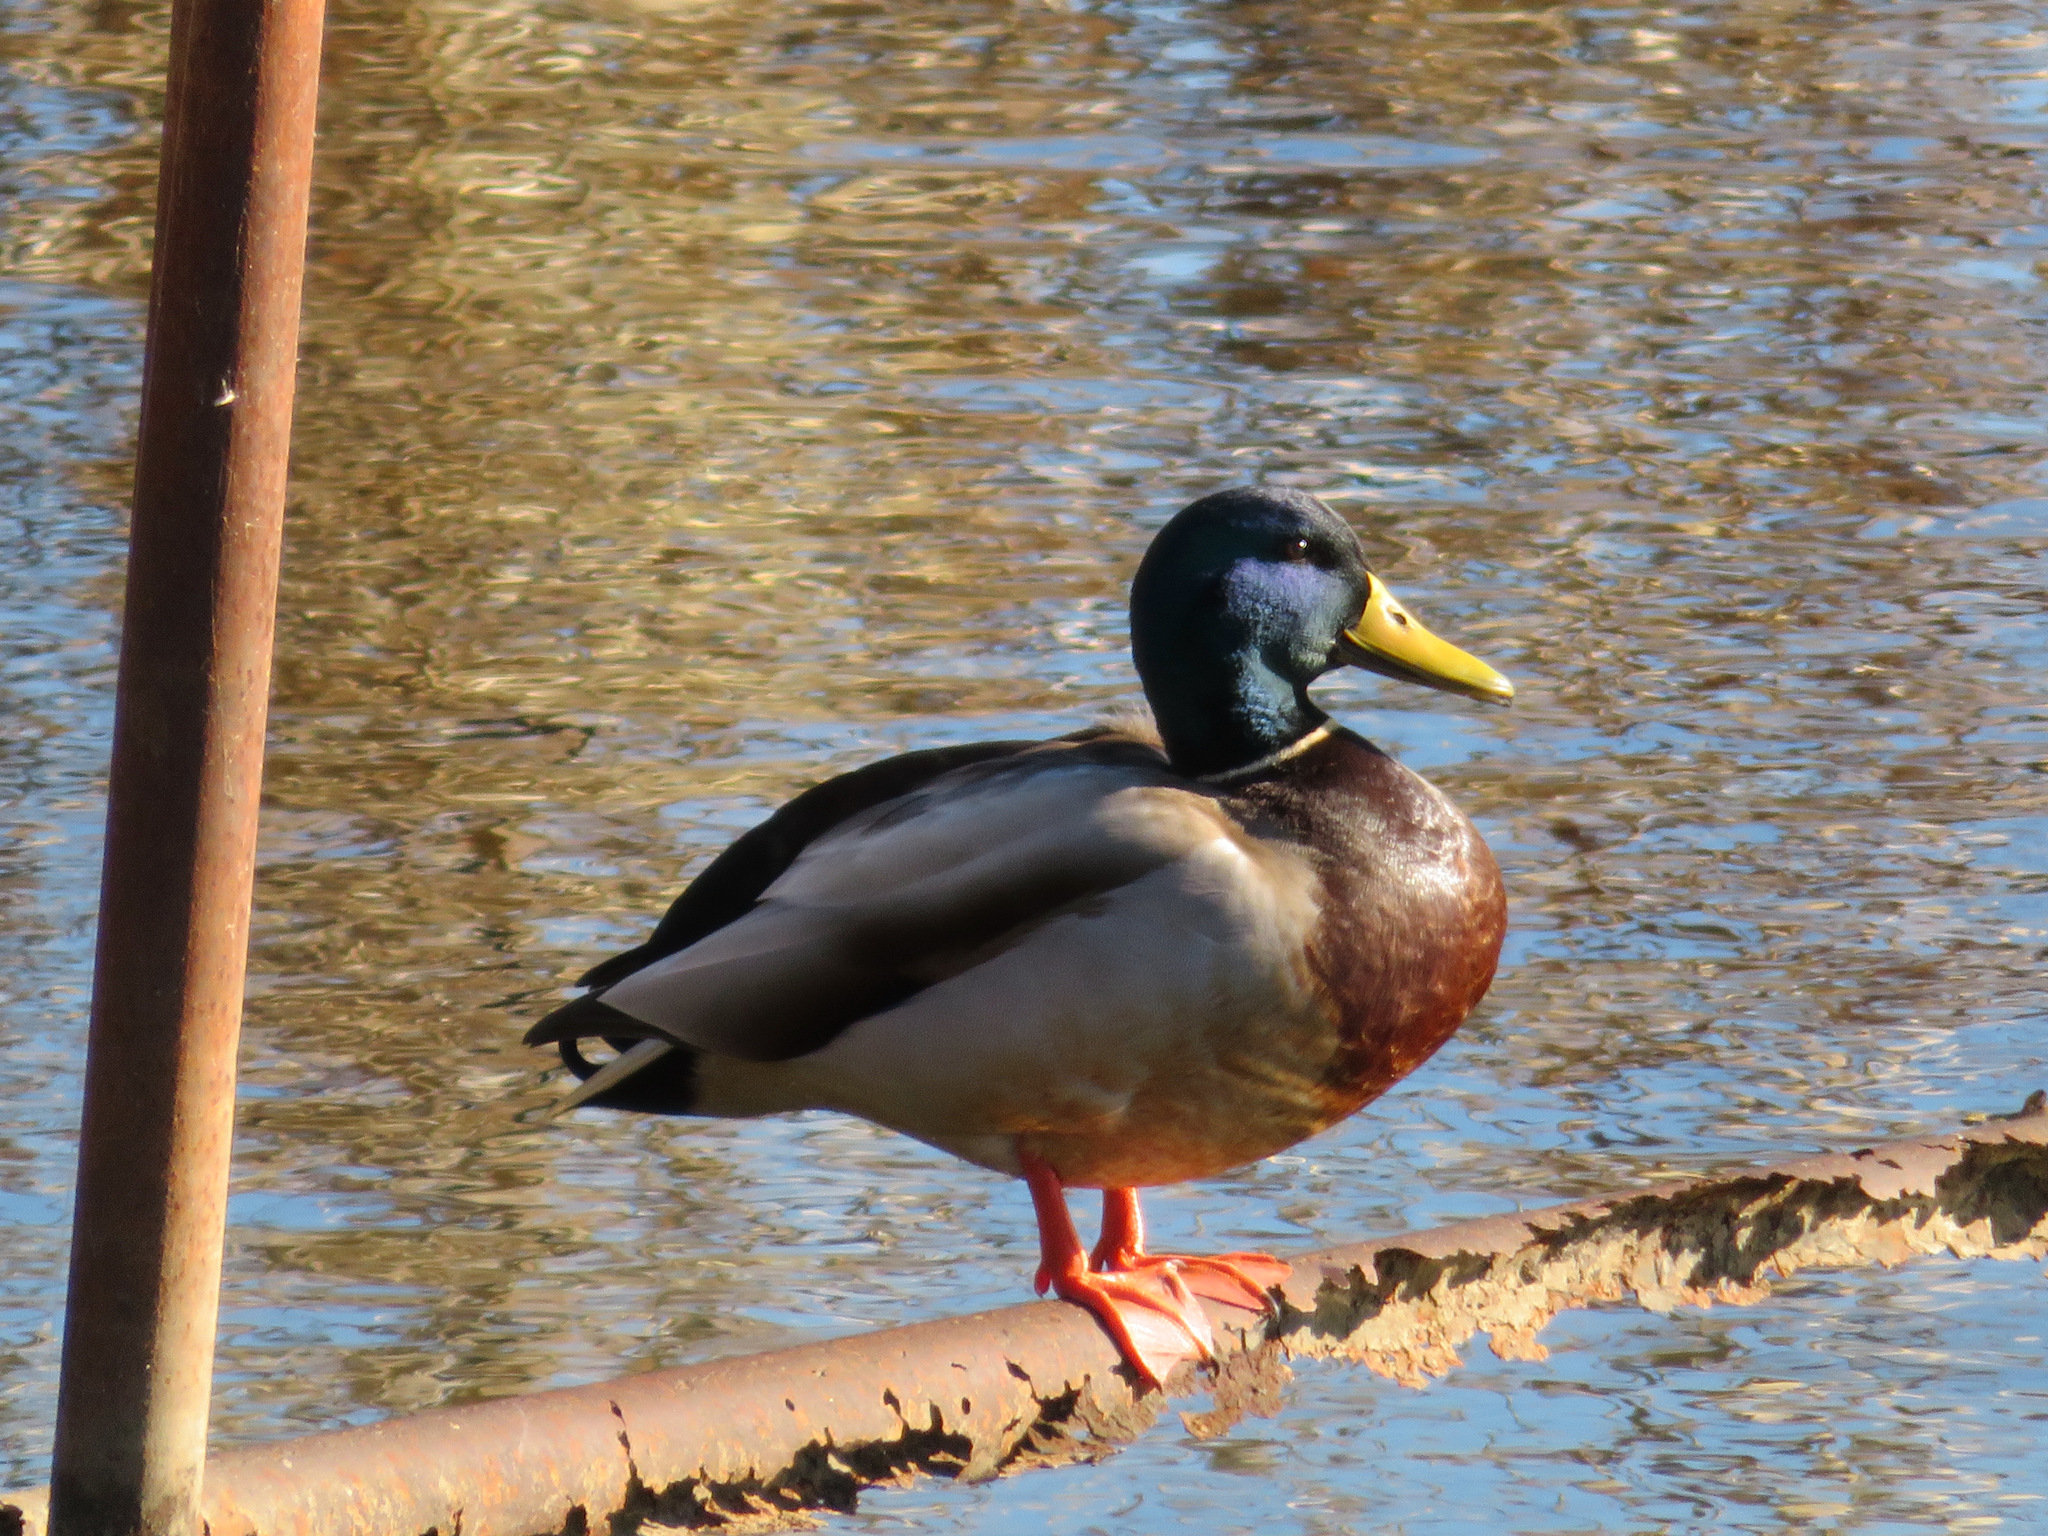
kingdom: Animalia
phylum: Chordata
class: Aves
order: Anseriformes
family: Anatidae
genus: Anas
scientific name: Anas platyrhynchos
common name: Mallard
